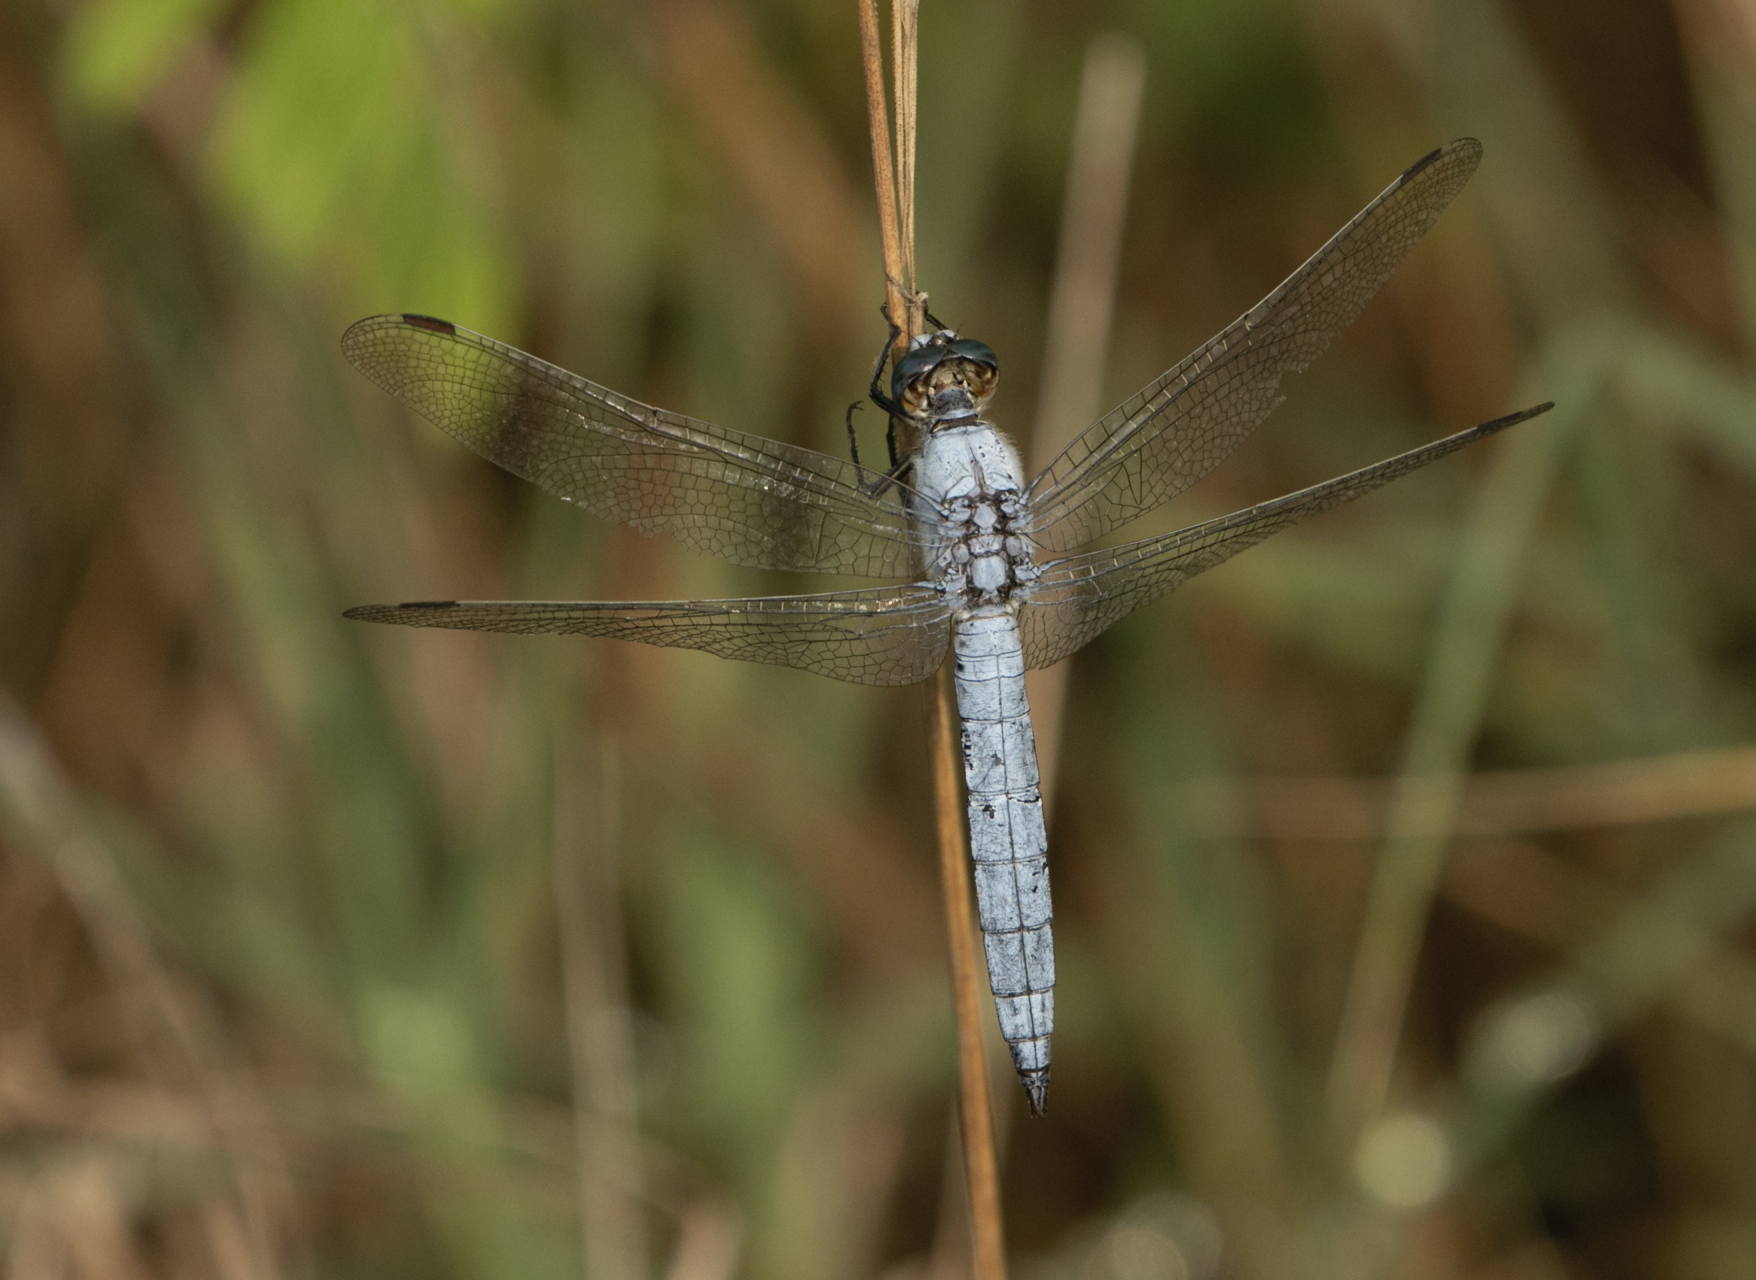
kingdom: Animalia
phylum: Arthropoda
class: Insecta
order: Odonata
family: Libellulidae
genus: Orthetrum
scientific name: Orthetrum brunneum
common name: Southern skimmer
